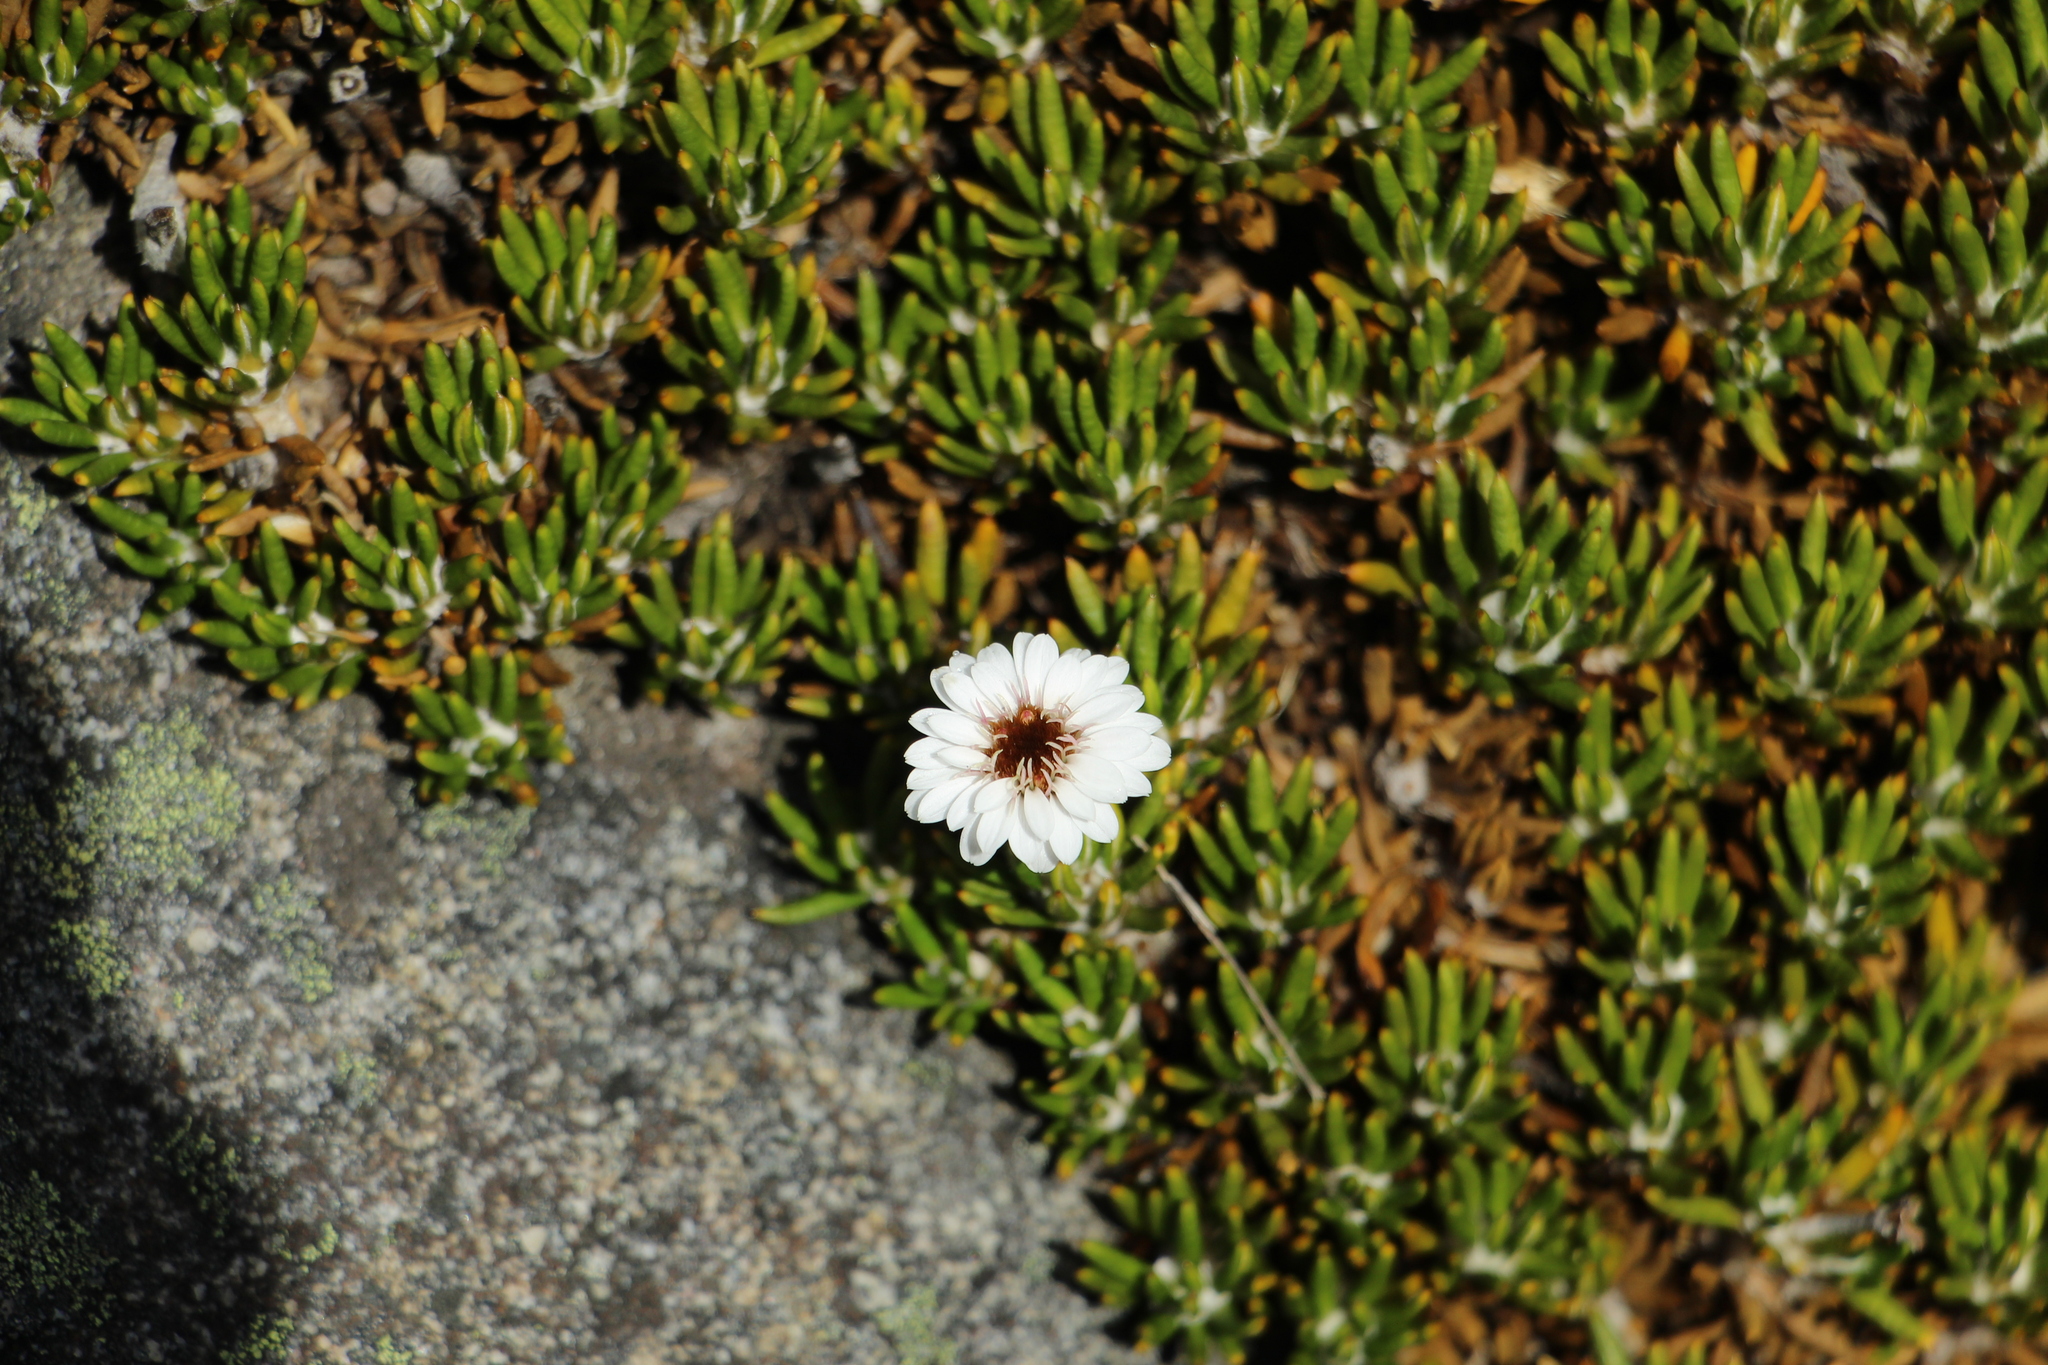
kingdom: Plantae
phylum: Tracheophyta
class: Magnoliopsida
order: Asterales
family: Asteraceae
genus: Linochilus
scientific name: Linochilus colombianus
